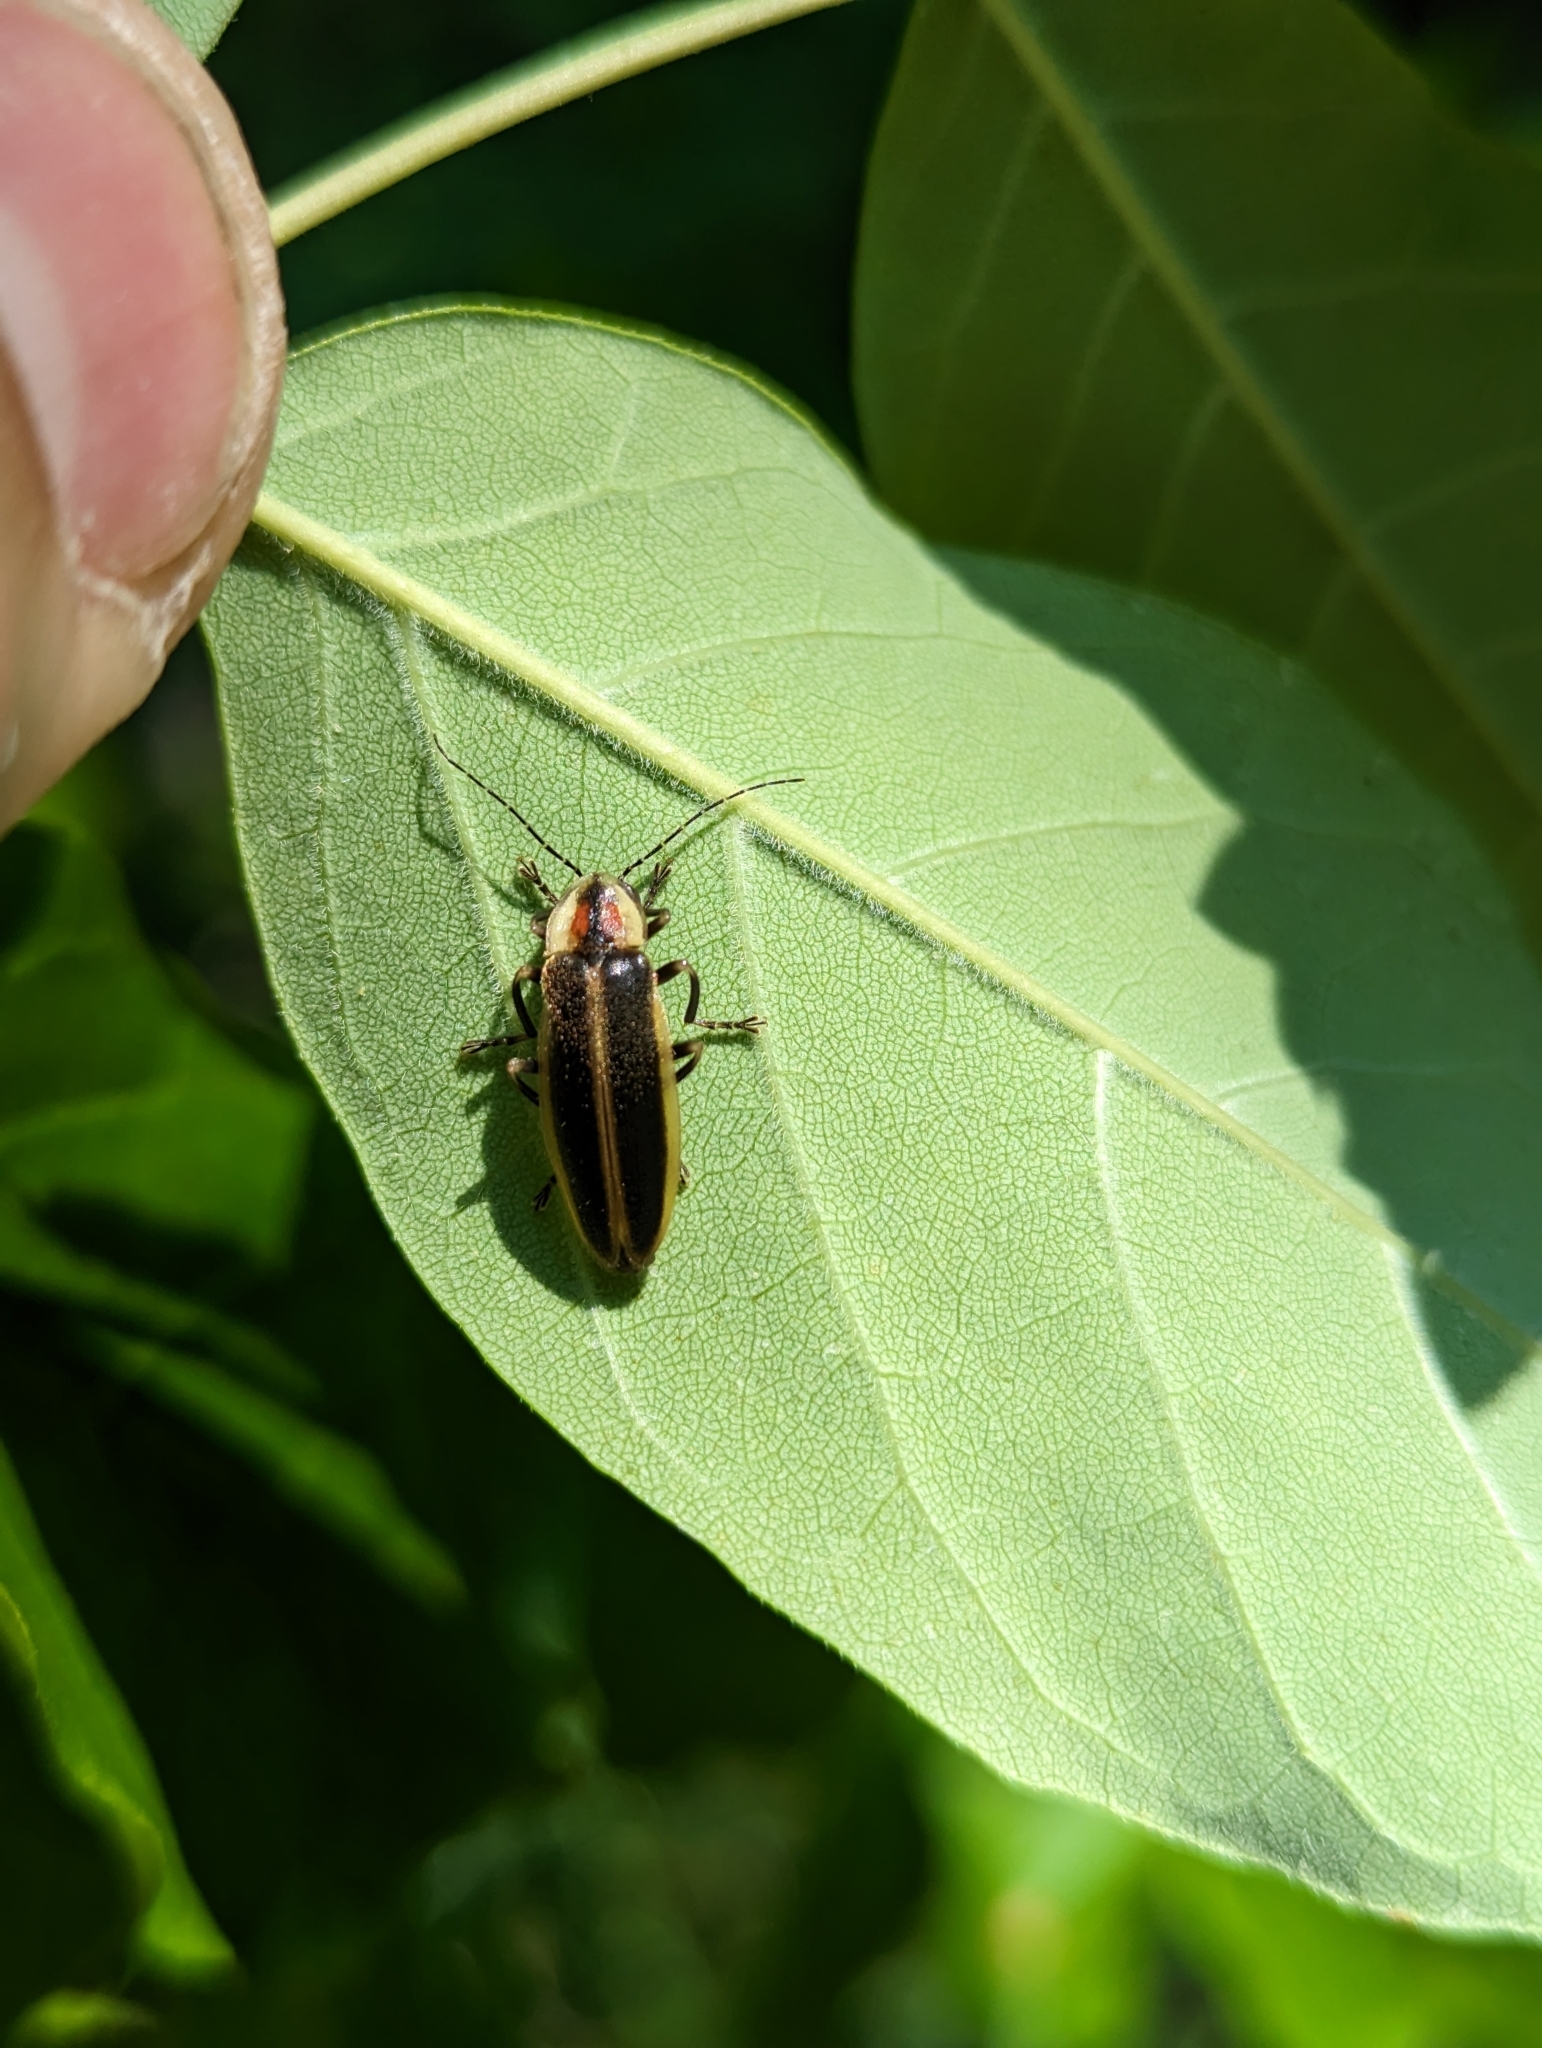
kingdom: Animalia
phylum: Arthropoda
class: Insecta
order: Coleoptera
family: Lampyridae
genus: Photuris
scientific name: Photuris
